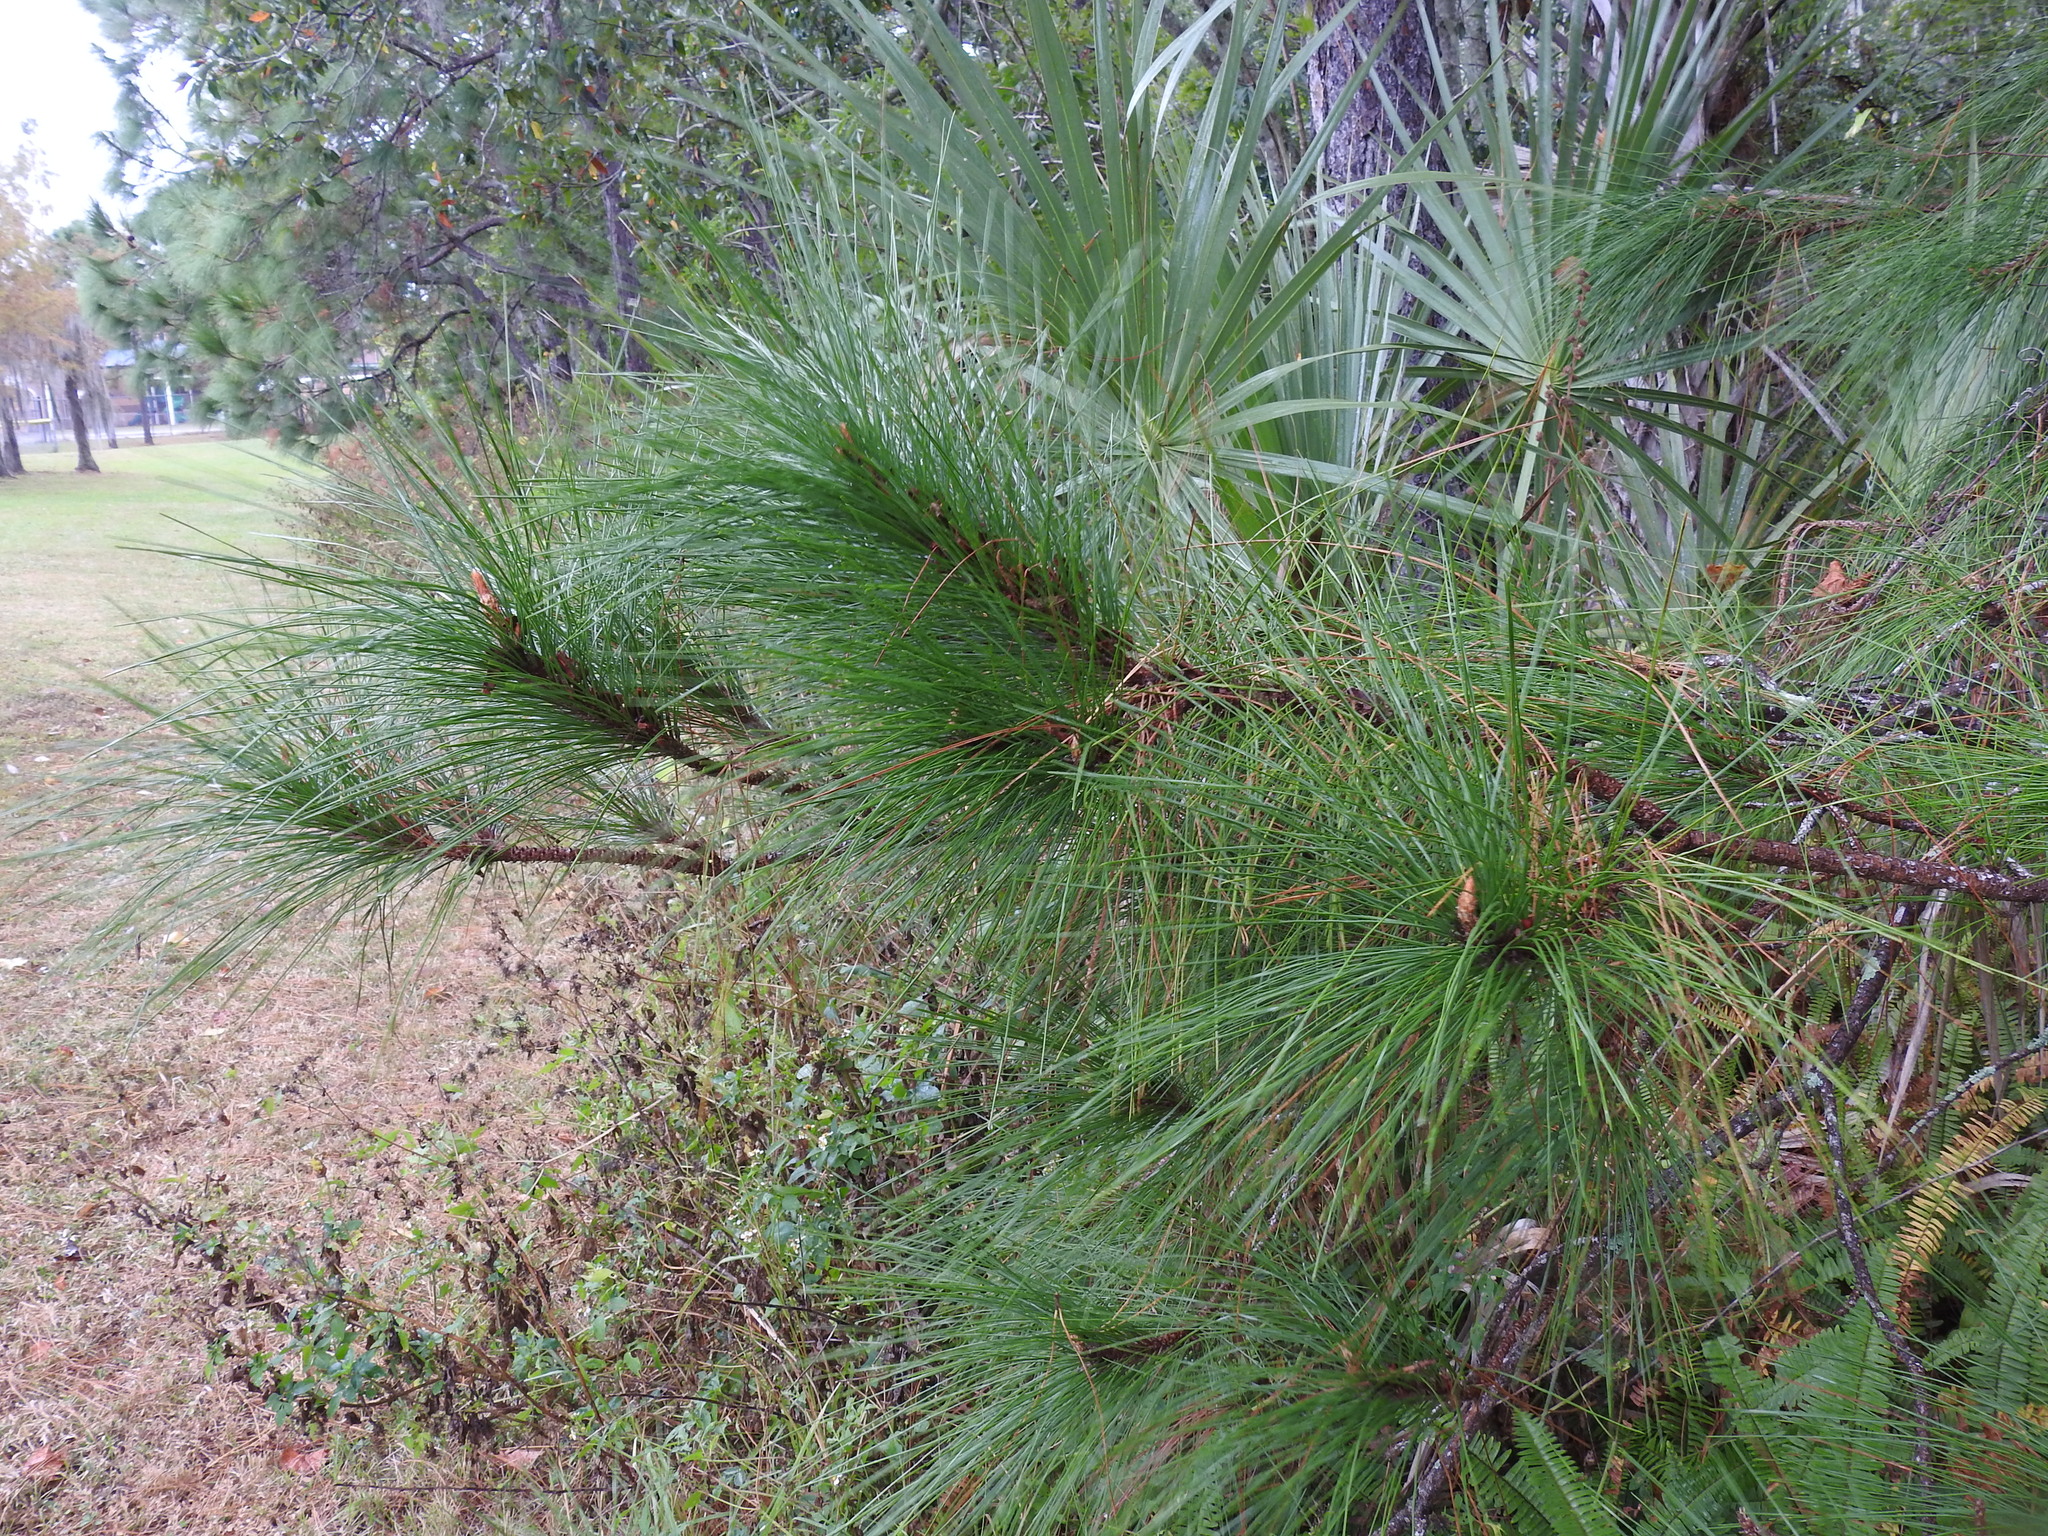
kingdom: Plantae
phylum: Tracheophyta
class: Pinopsida
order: Pinales
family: Pinaceae
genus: Pinus
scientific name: Pinus elliottii
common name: Slash pine
